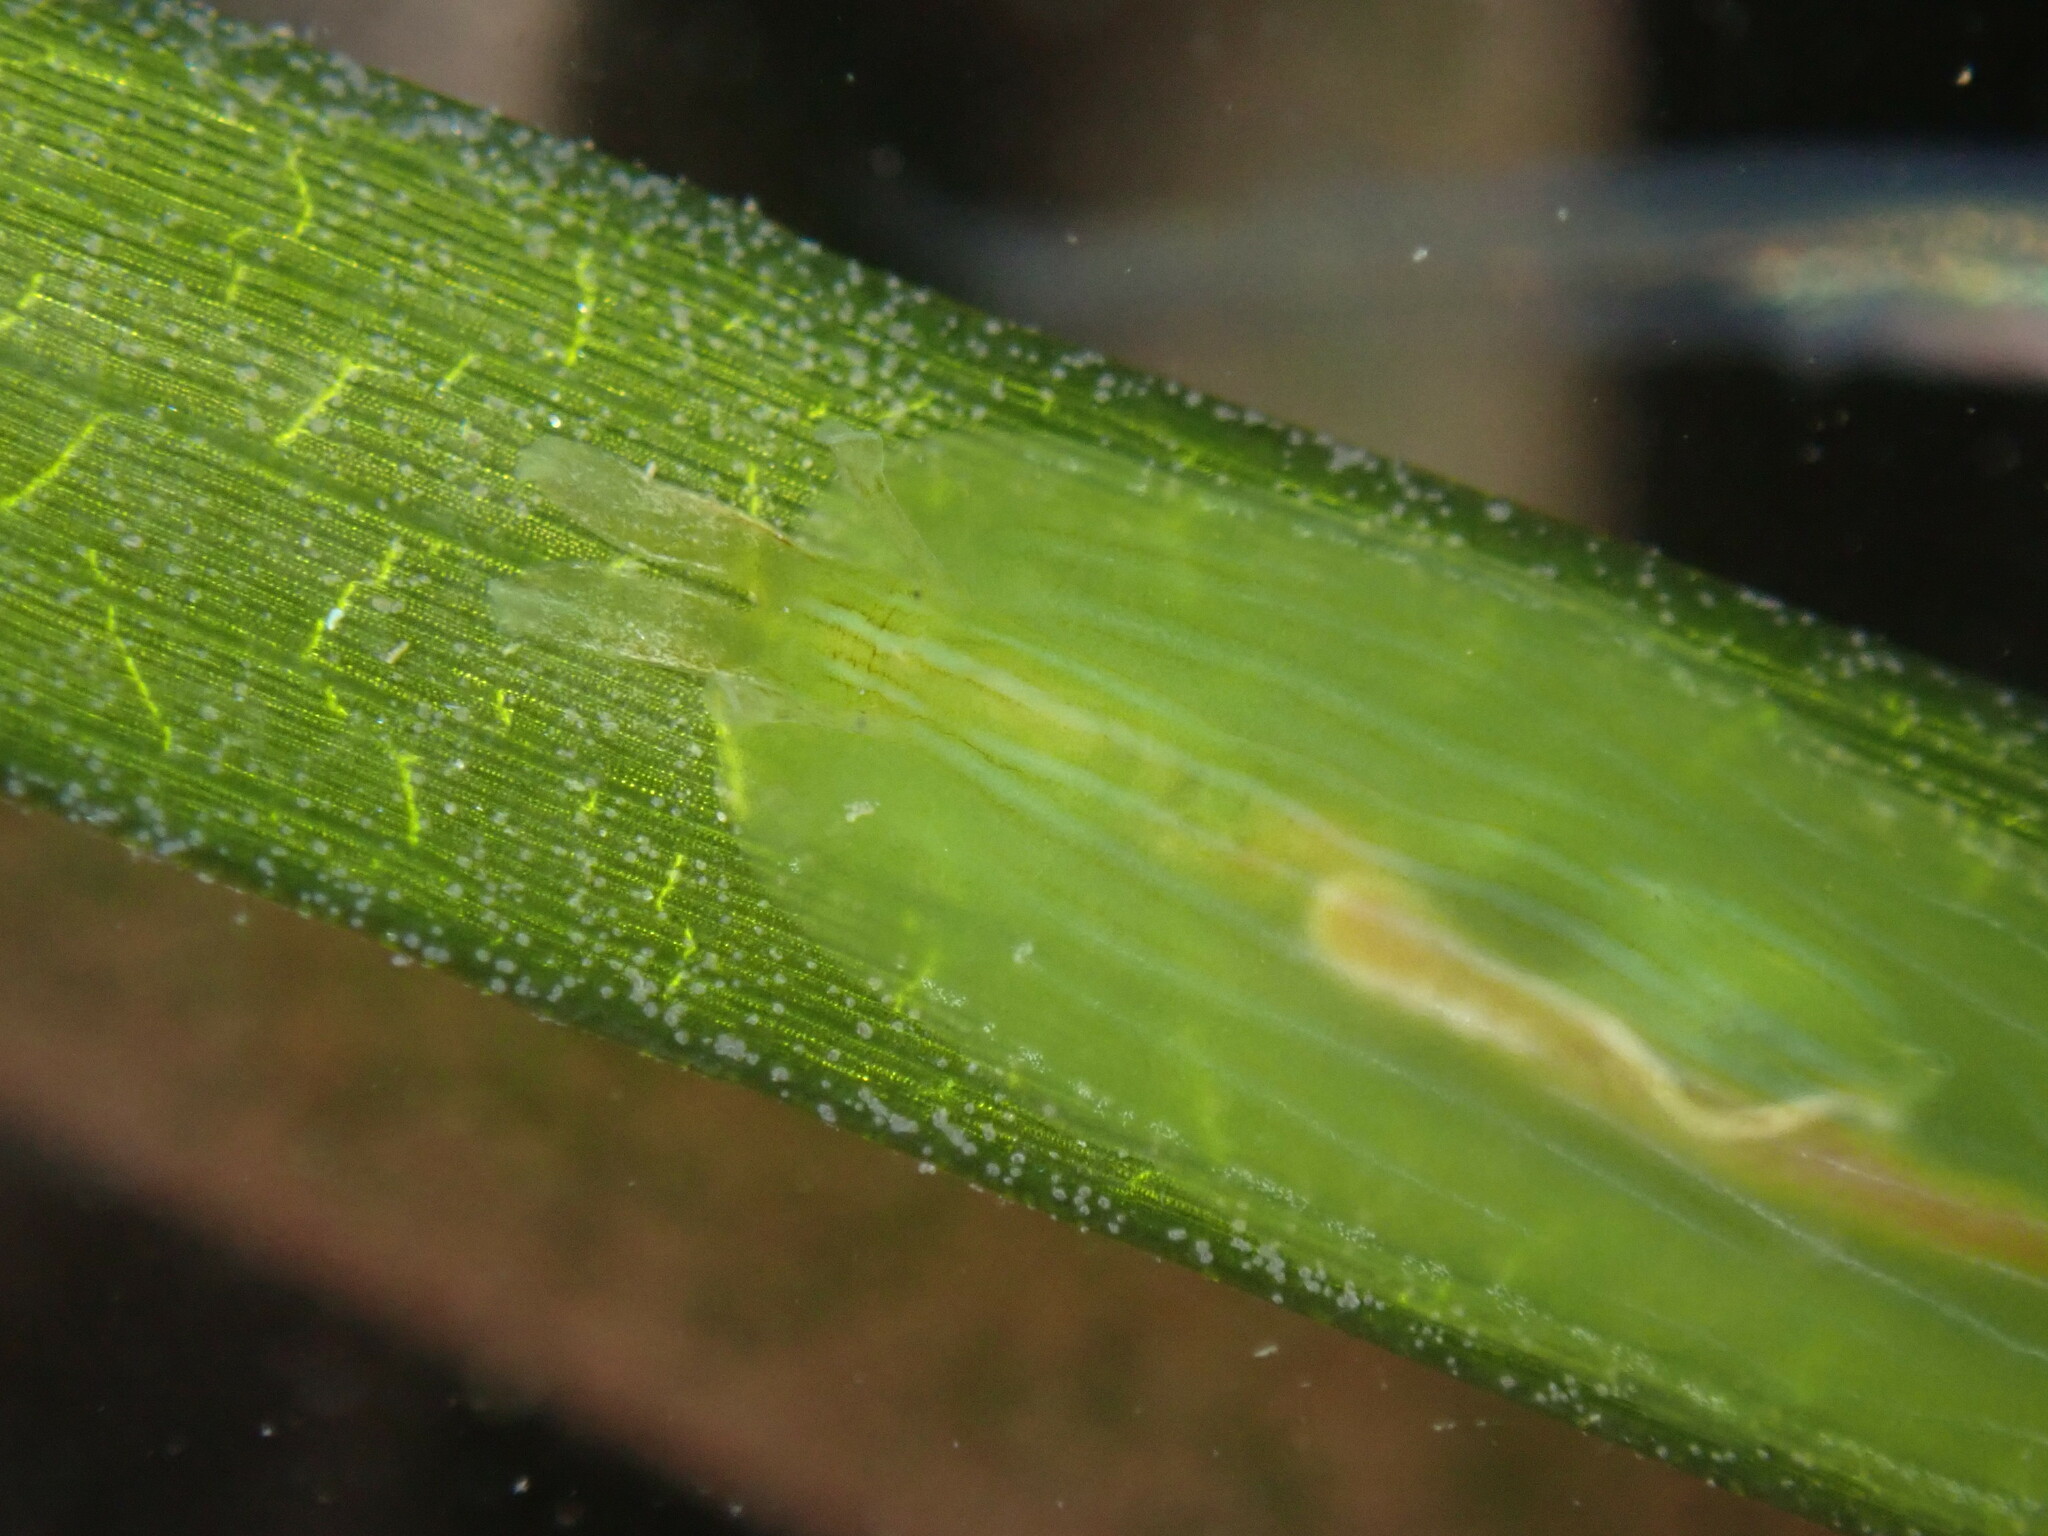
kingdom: Animalia
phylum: Mollusca
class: Gastropoda
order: Aplysiida
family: Aplysiidae
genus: Phyllaplysia
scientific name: Phyllaplysia taylori
